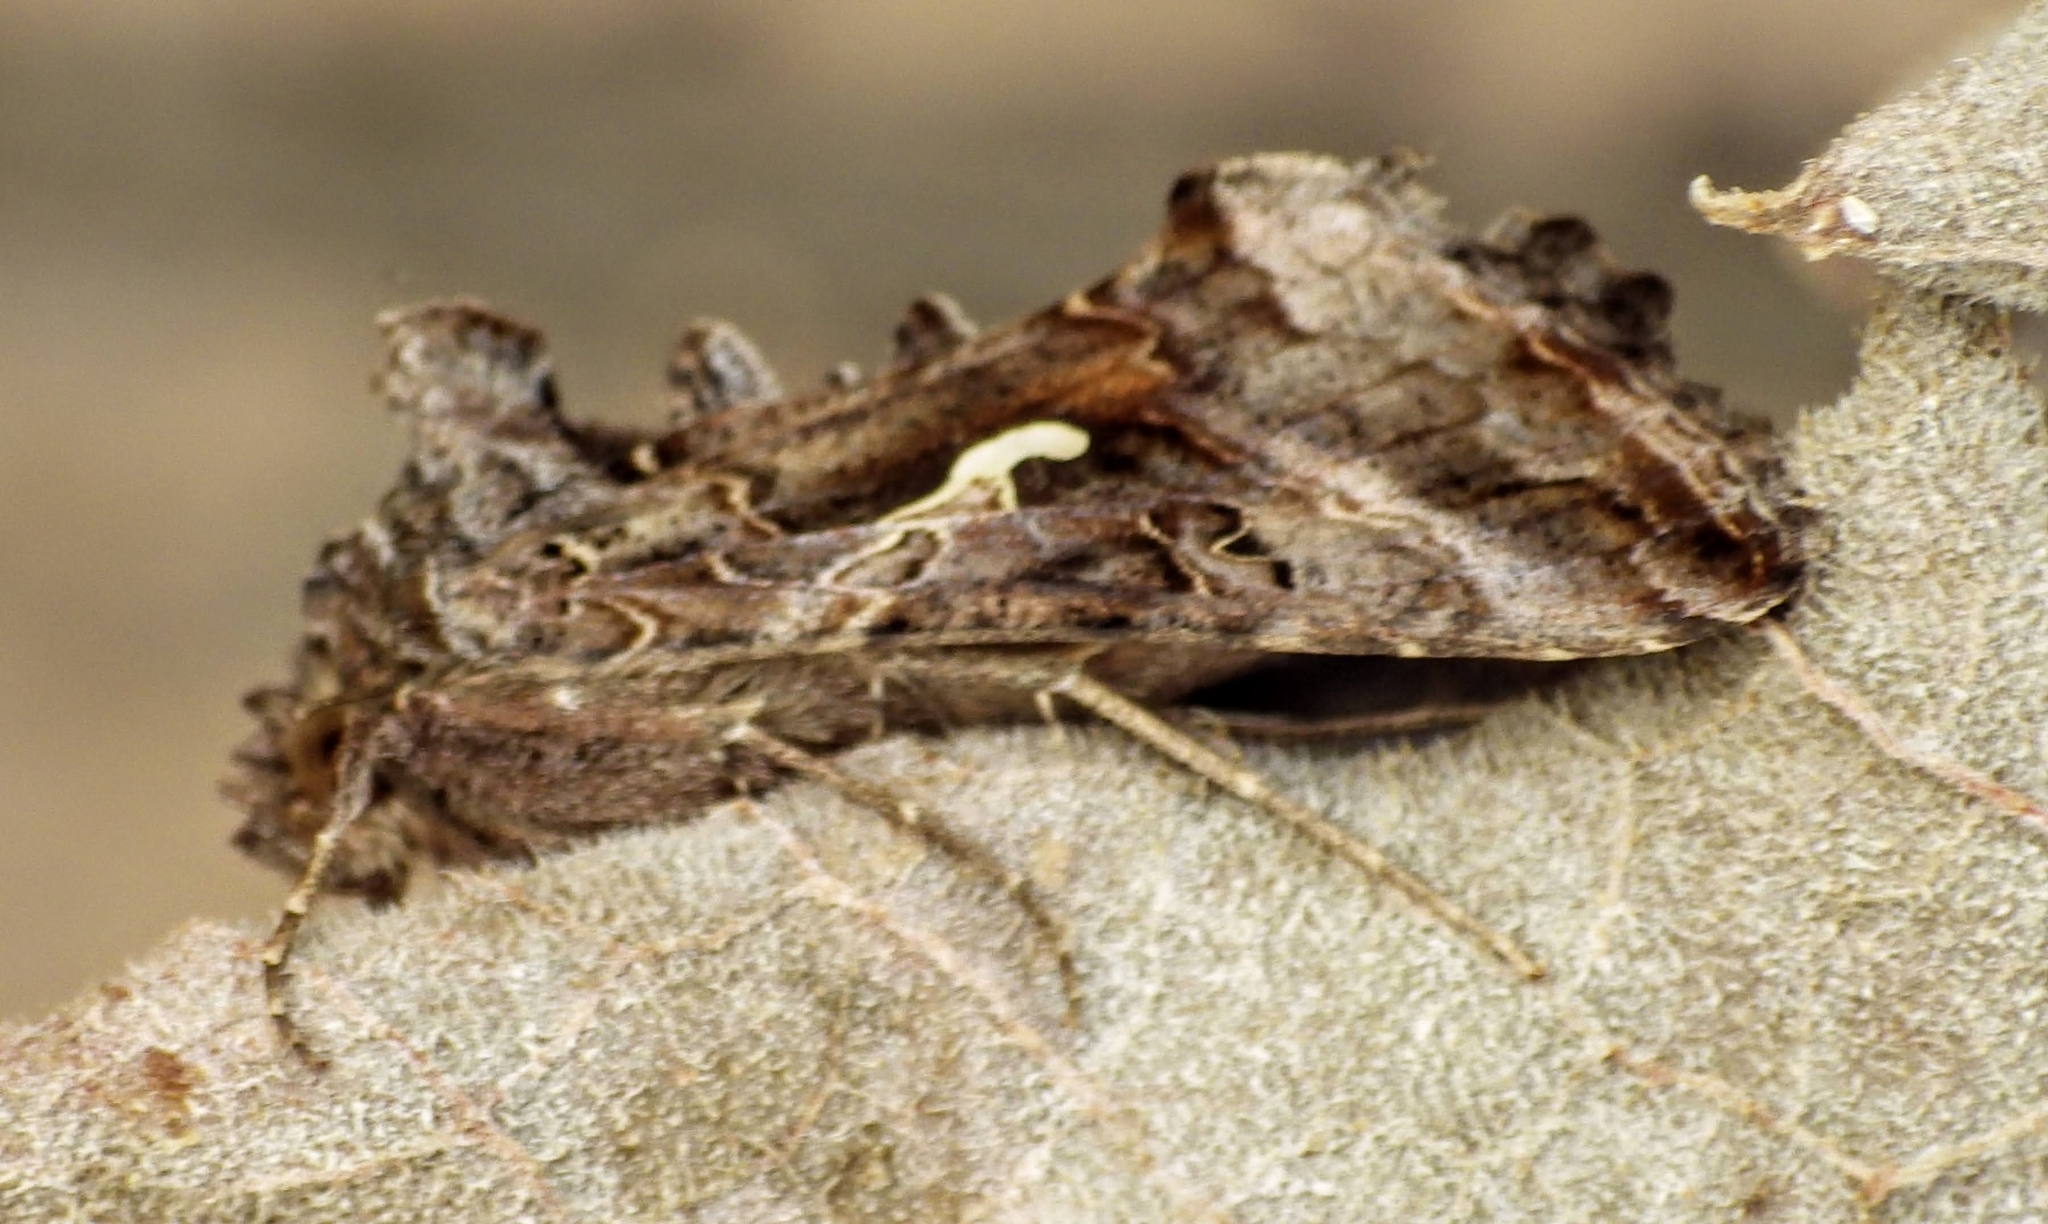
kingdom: Animalia
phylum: Arthropoda
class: Insecta
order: Lepidoptera
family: Noctuidae
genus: Autographa
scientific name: Autographa gamma
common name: Silver y
